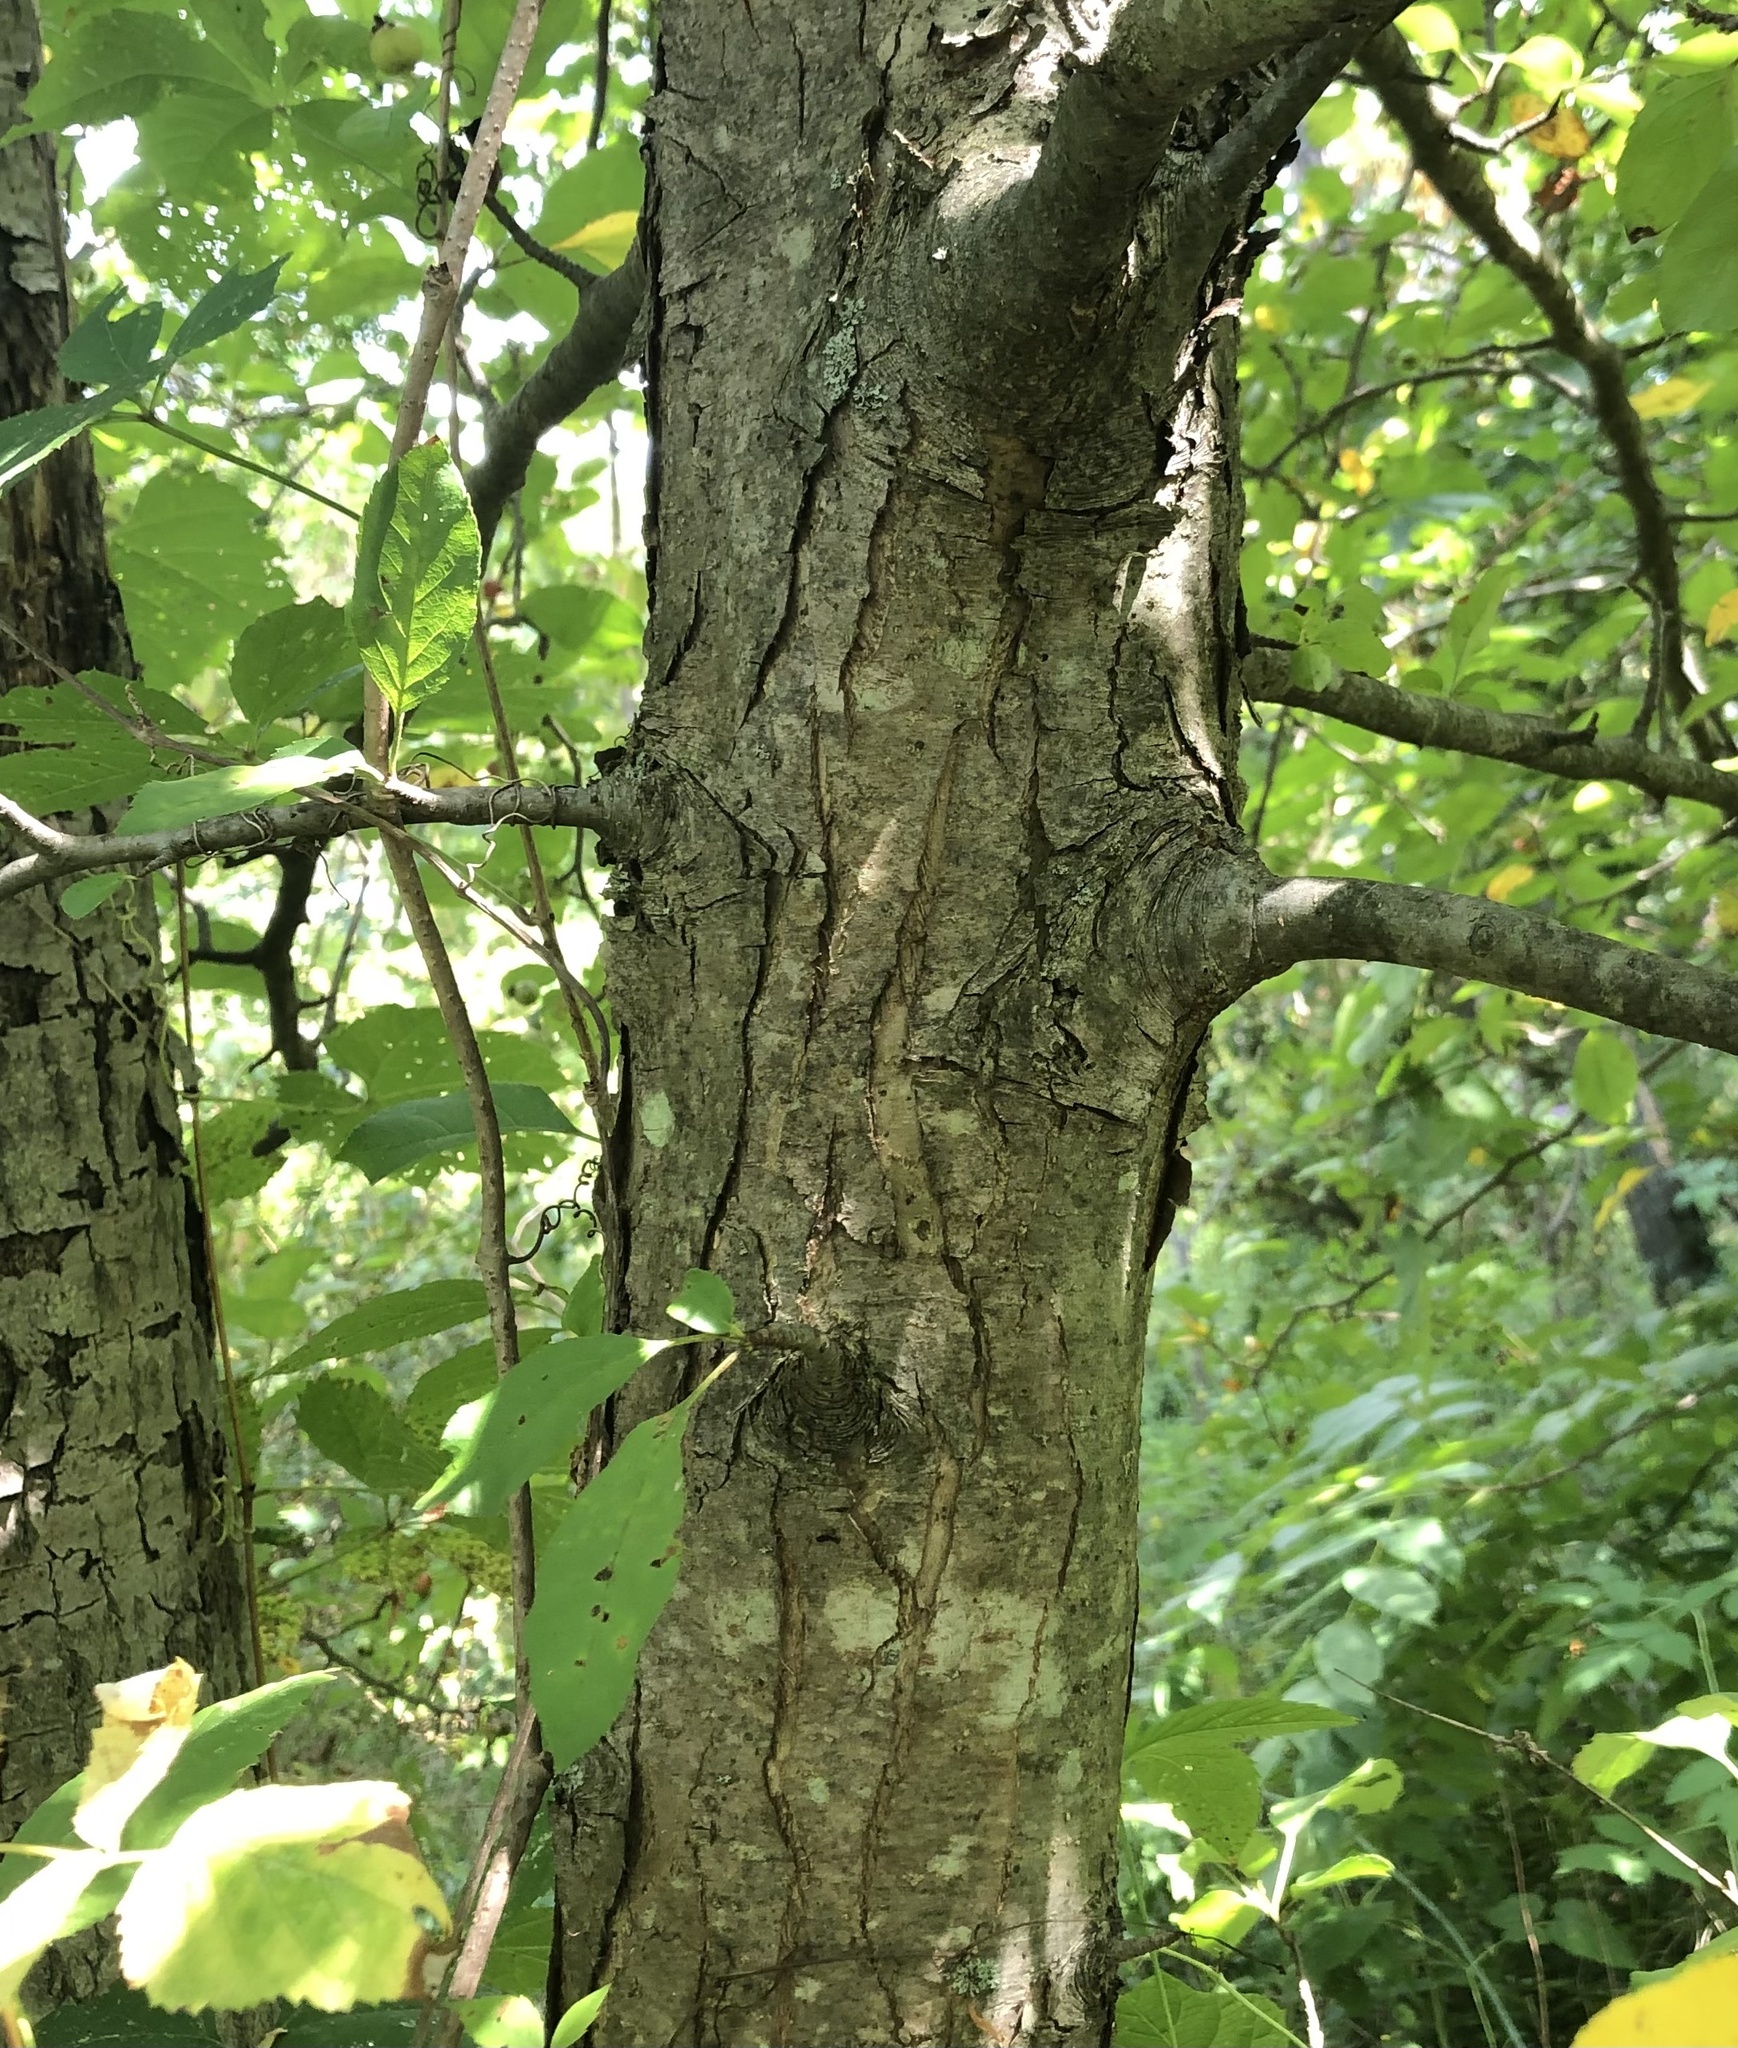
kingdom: Plantae
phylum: Tracheophyta
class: Magnoliopsida
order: Rosales
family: Rosaceae
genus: Malus
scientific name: Malus coronaria
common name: Sweet crab apple
